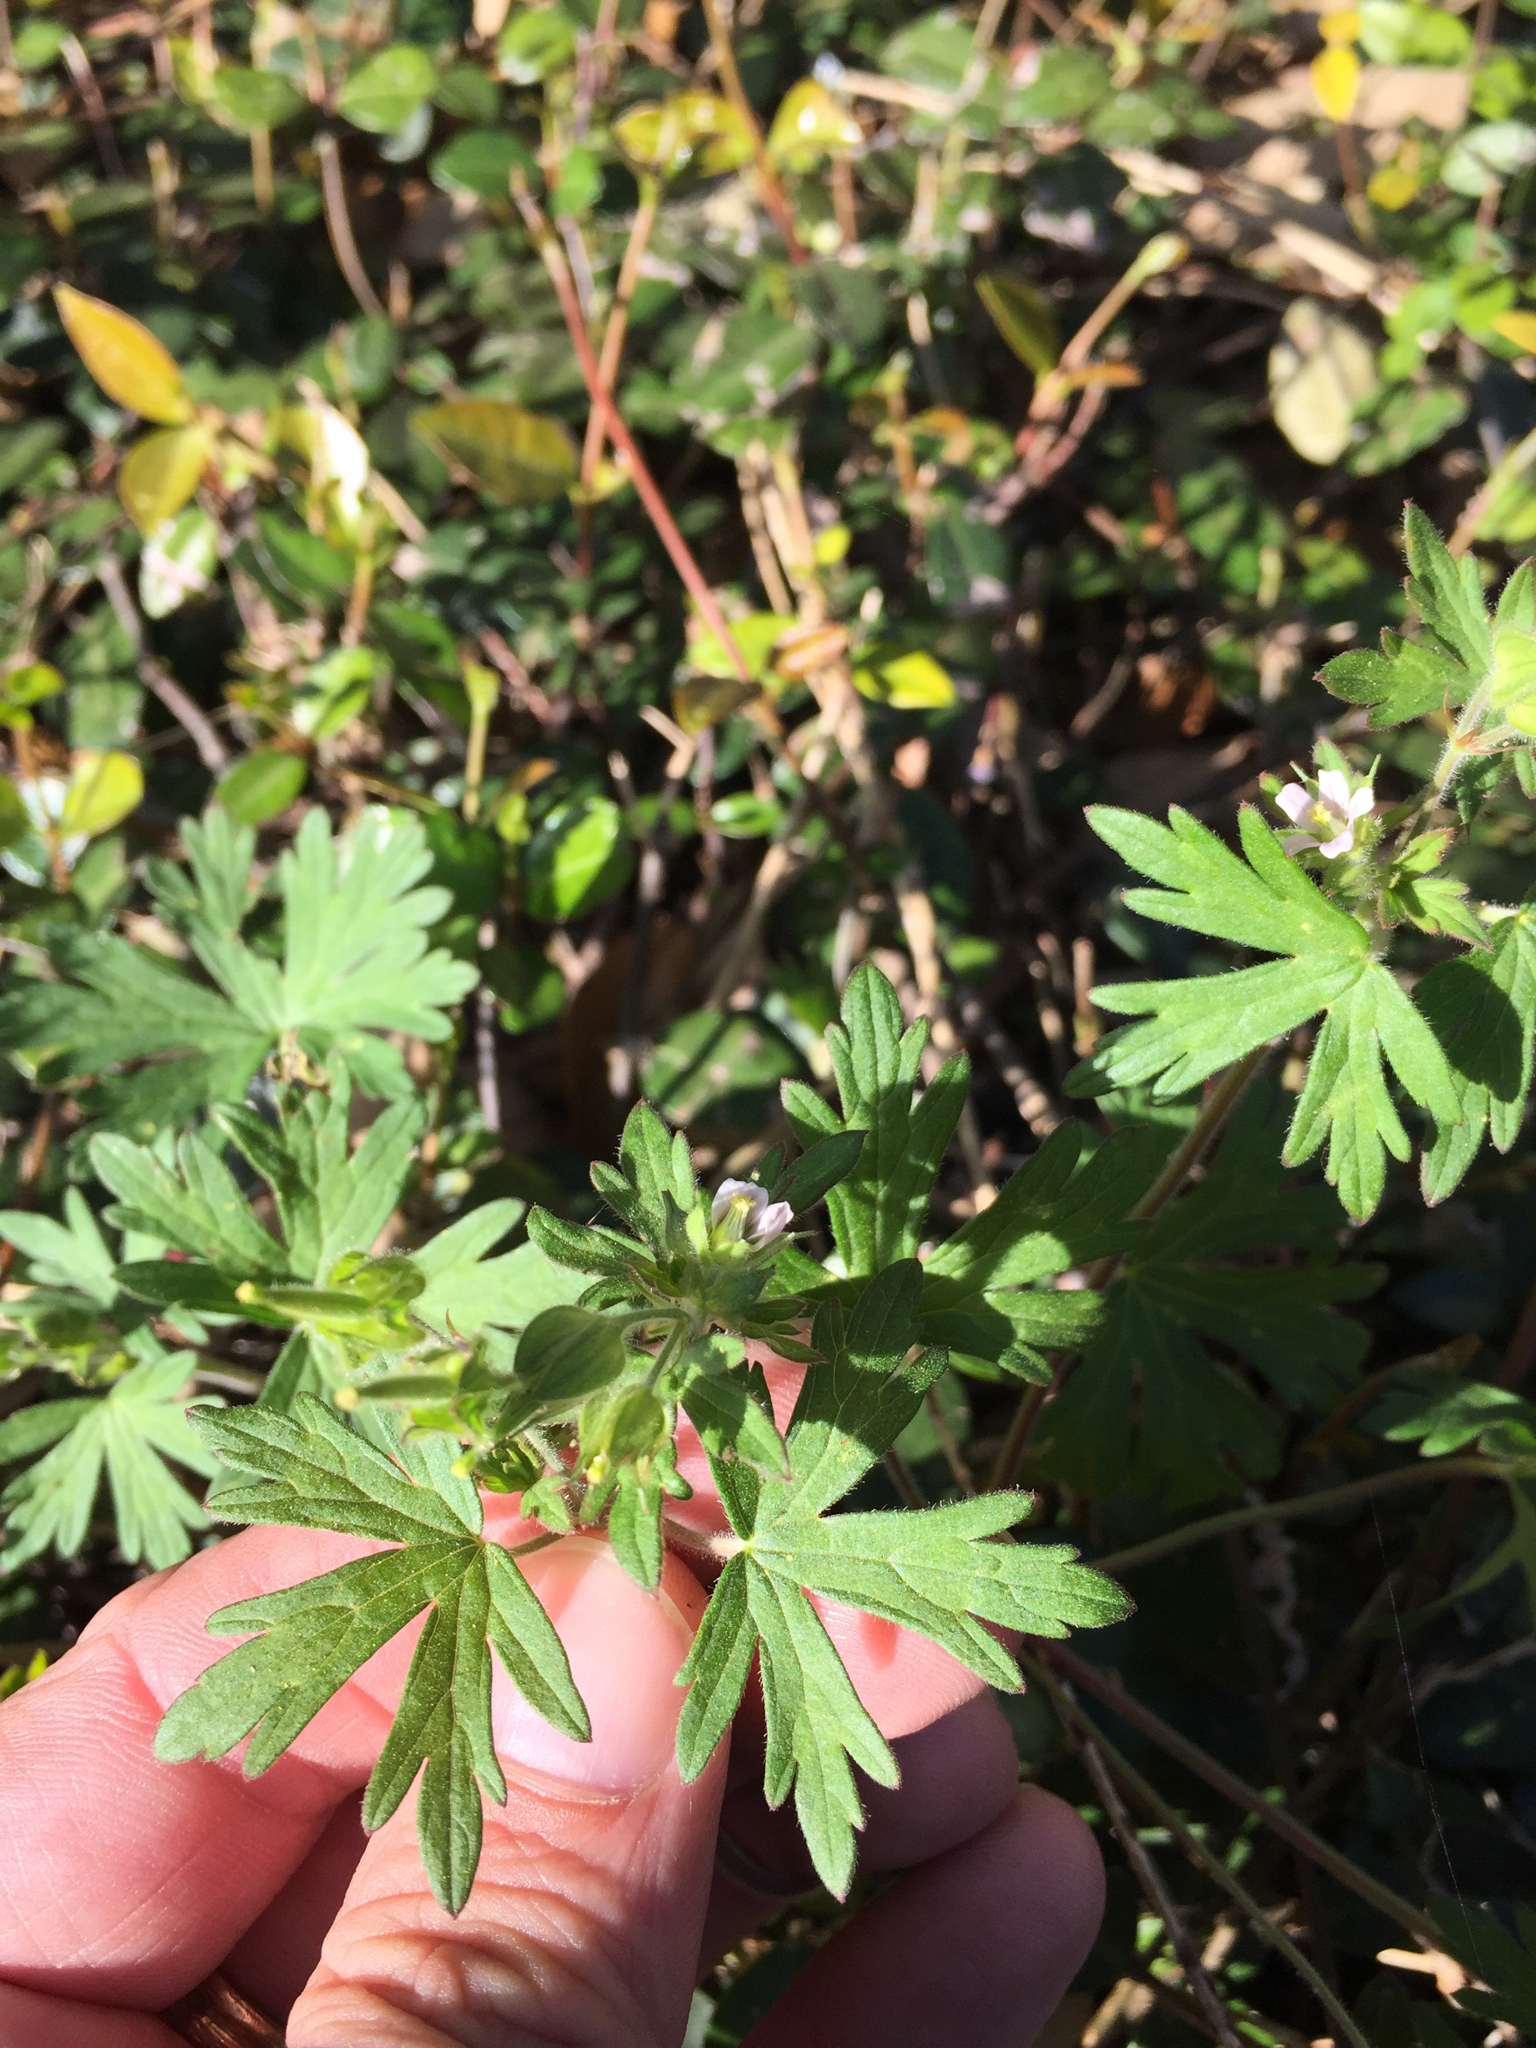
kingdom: Plantae
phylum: Tracheophyta
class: Magnoliopsida
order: Geraniales
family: Geraniaceae
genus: Geranium
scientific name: Geranium carolinianum
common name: Carolina crane's-bill
